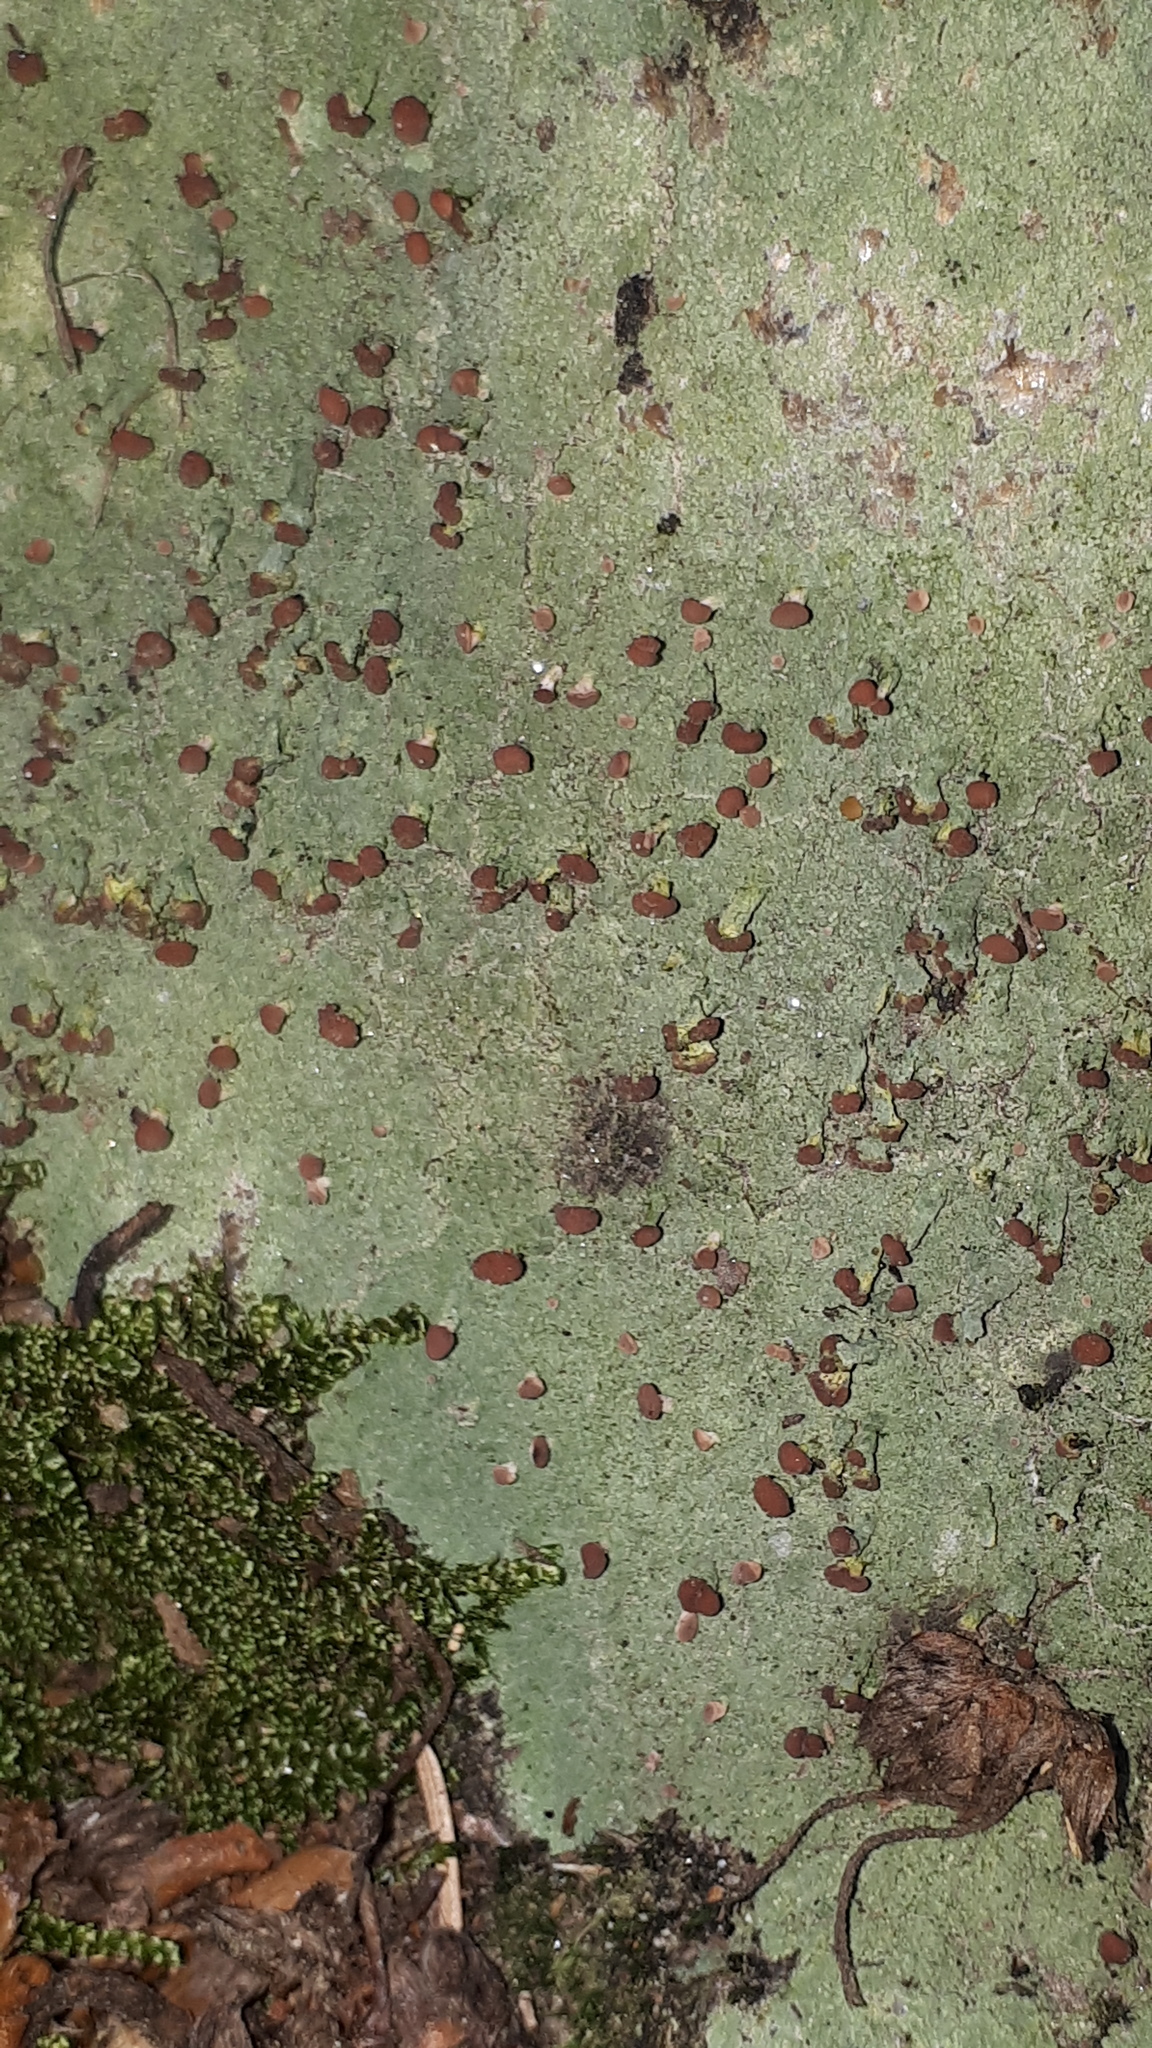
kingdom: Fungi
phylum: Ascomycota
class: Lecanoromycetes
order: Baeomycetales
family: Baeomycetaceae
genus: Baeomyces
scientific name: Baeomyces rufus
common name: Brown beret lichen
